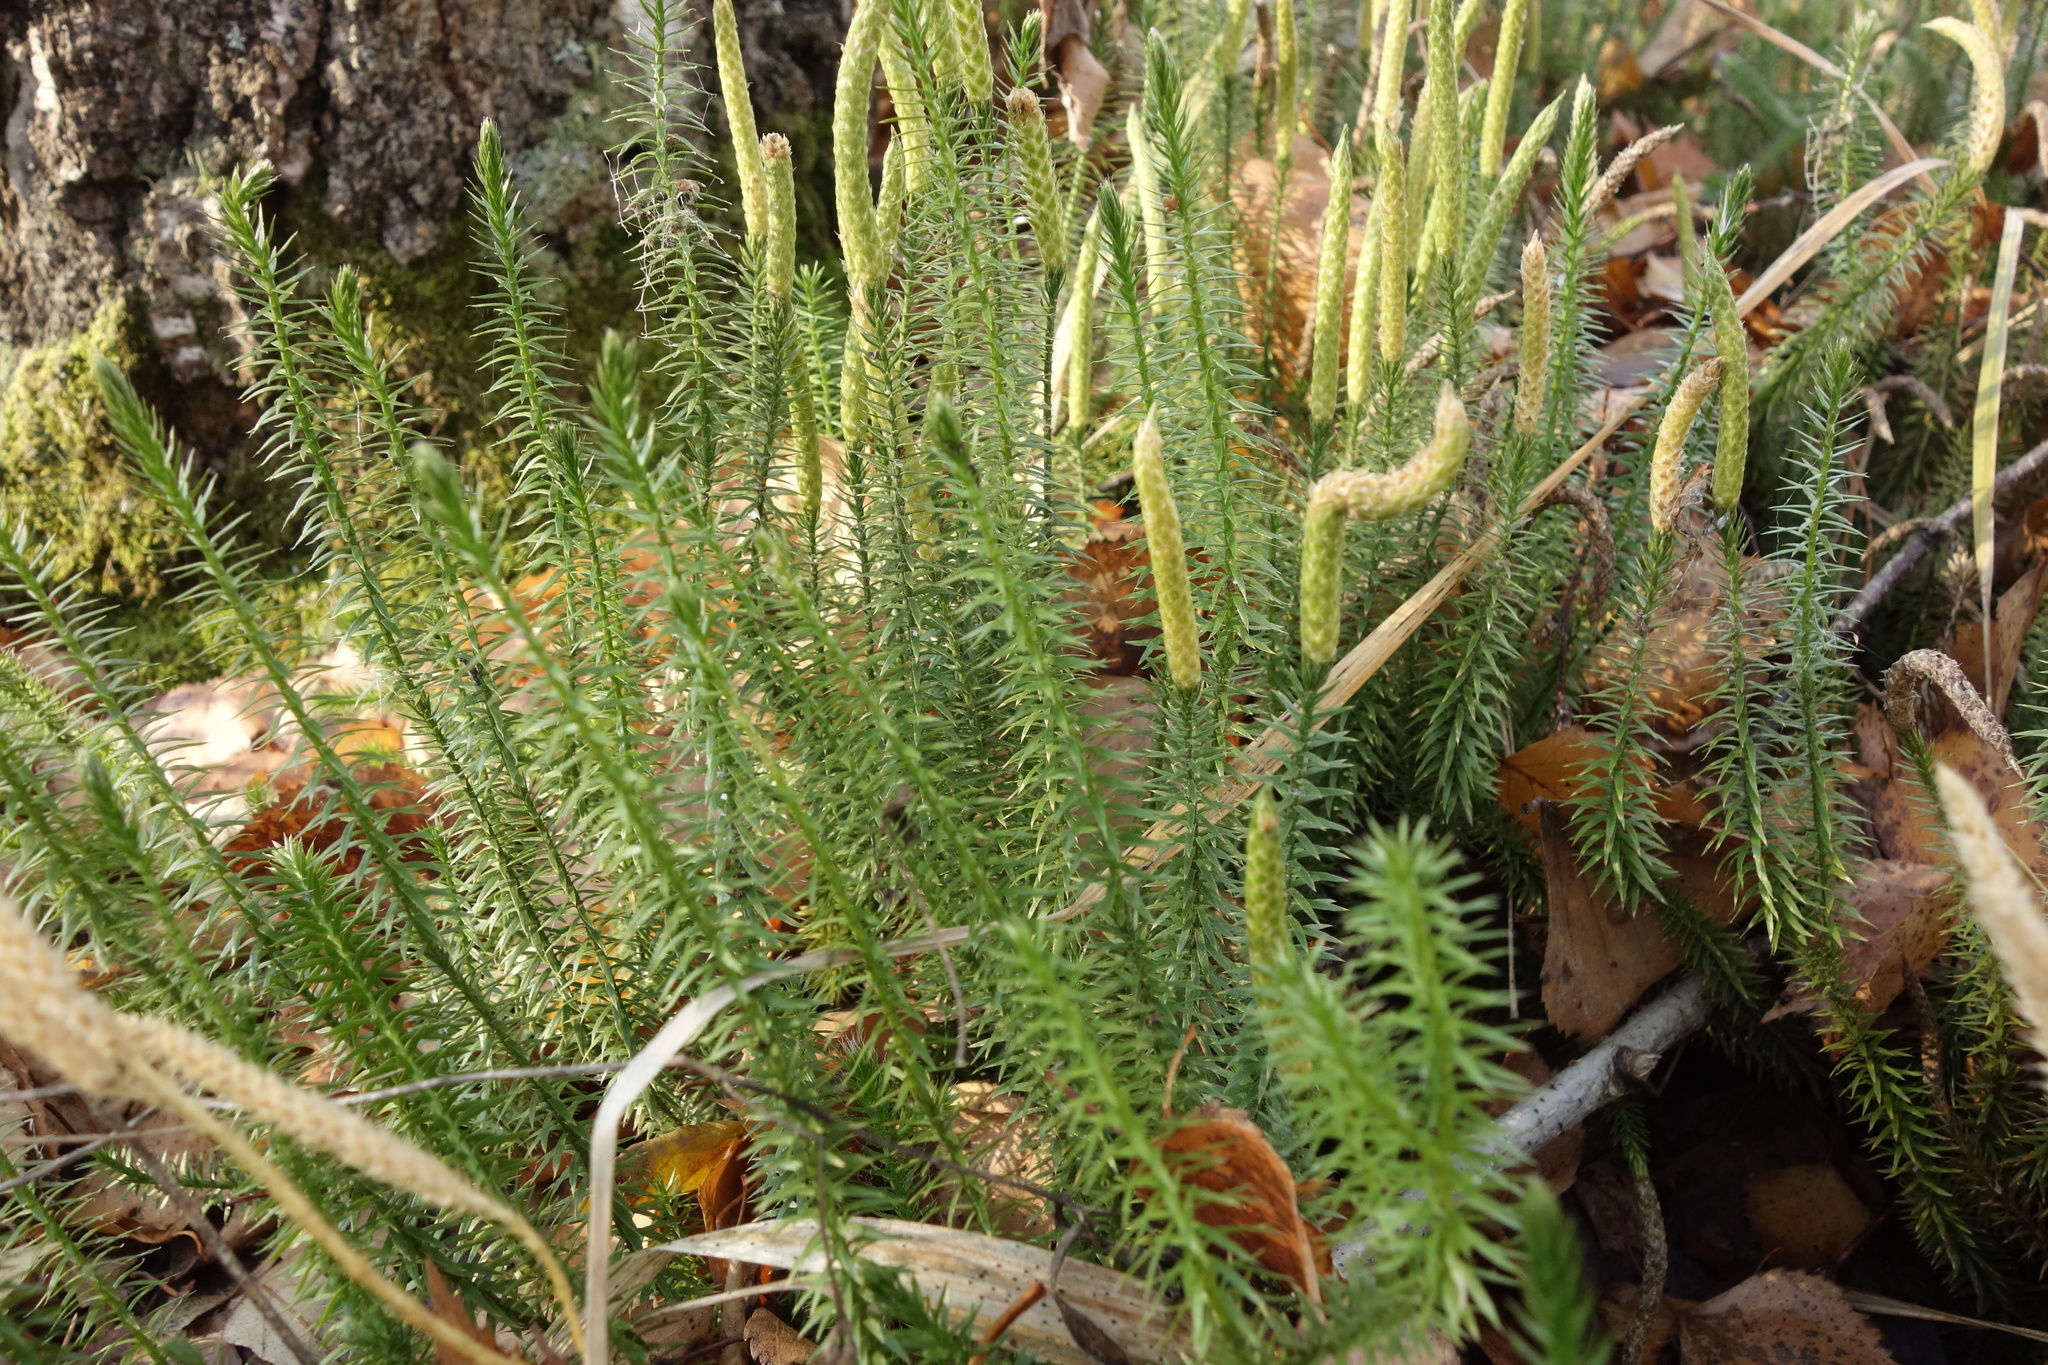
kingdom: Plantae
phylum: Tracheophyta
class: Lycopodiopsida
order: Lycopodiales
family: Lycopodiaceae
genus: Spinulum
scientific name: Spinulum annotinum
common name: Interrupted club-moss
